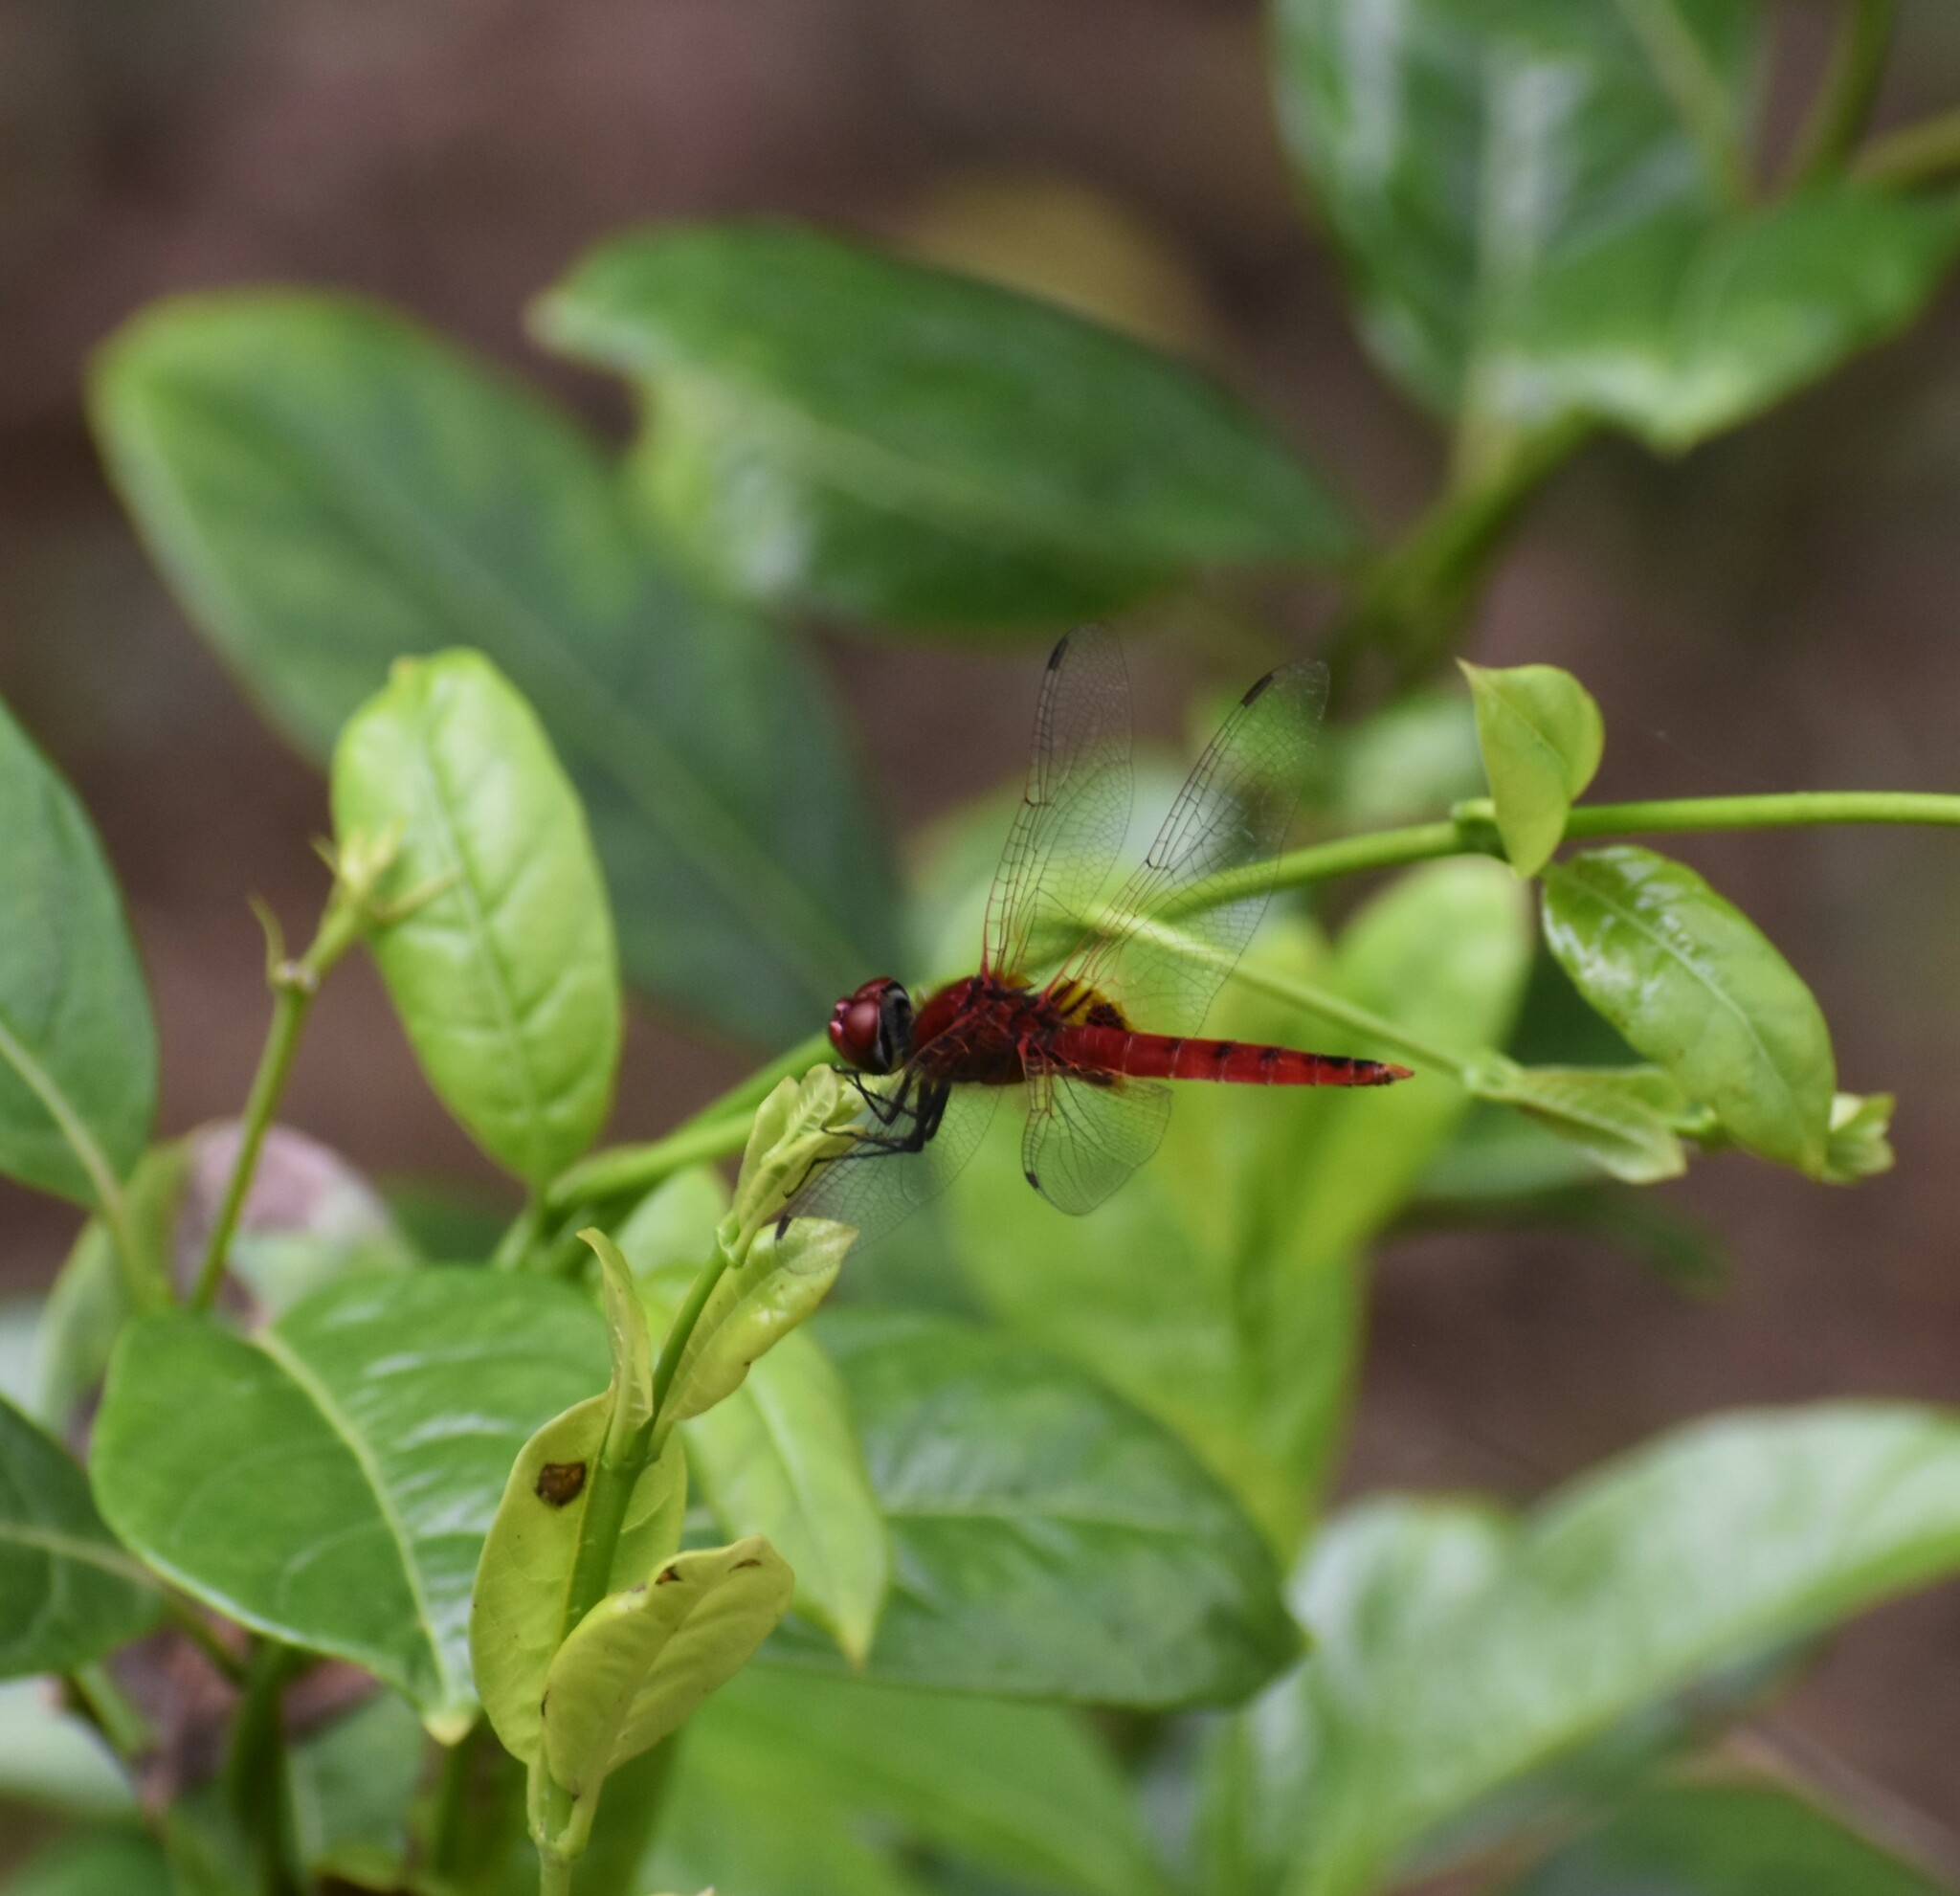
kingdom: Animalia
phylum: Arthropoda
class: Insecta
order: Odonata
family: Libellulidae
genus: Urothemis
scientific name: Urothemis signata
